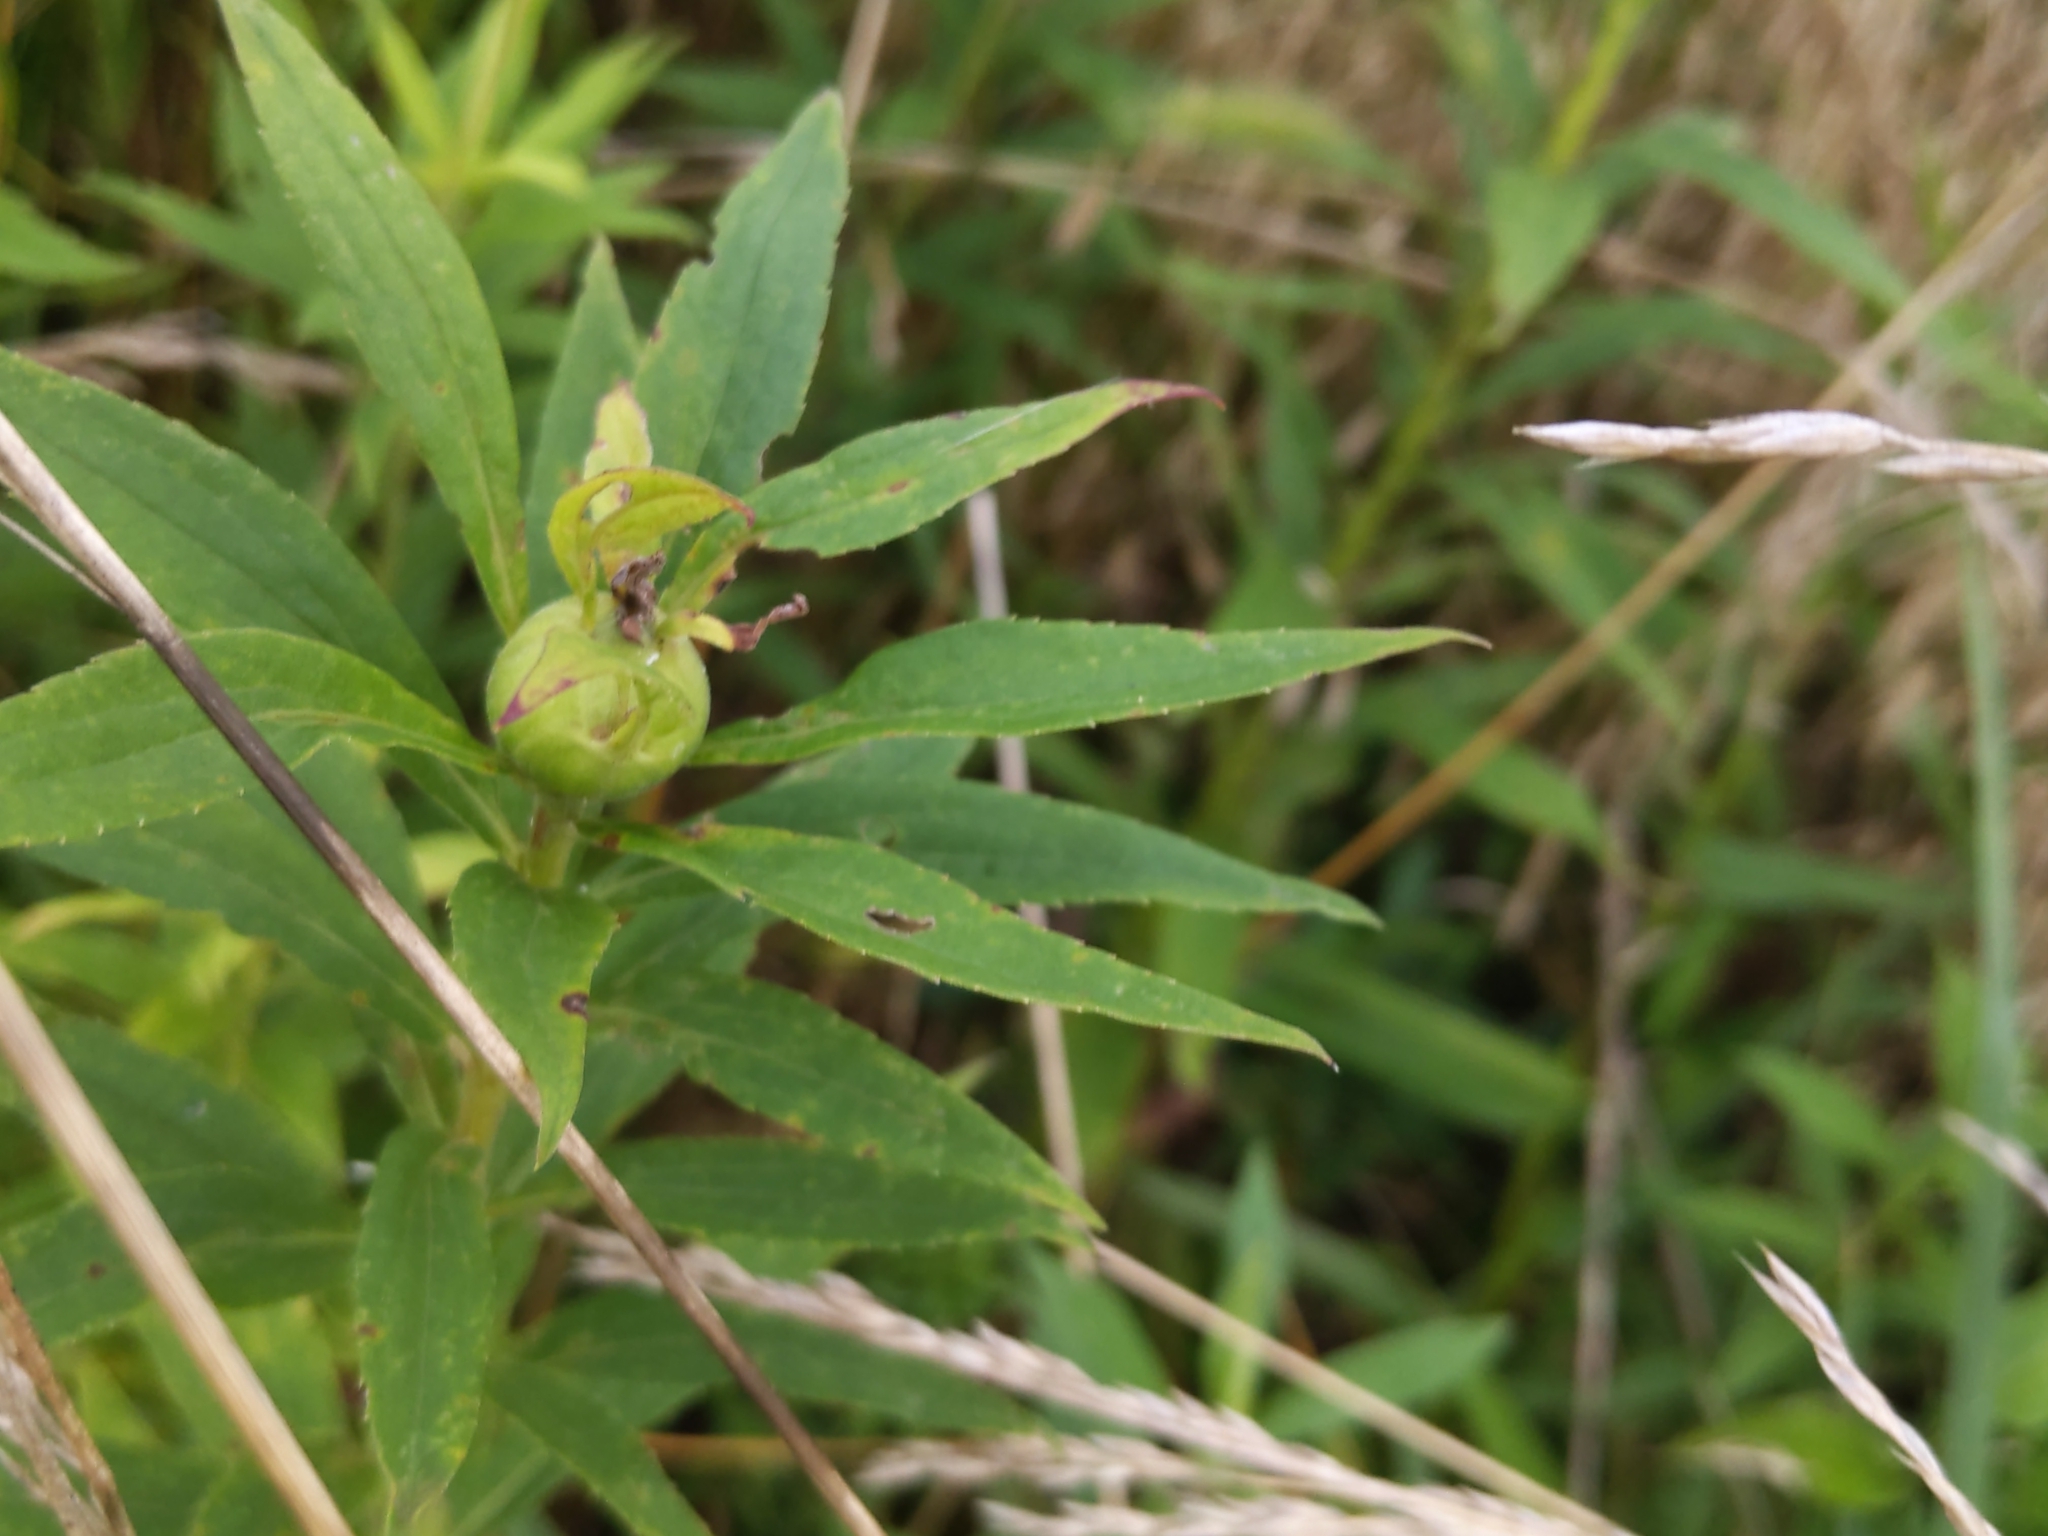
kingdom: Animalia
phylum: Arthropoda
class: Insecta
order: Diptera
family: Tephritidae
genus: Eurosta
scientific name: Eurosta solidaginis
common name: Goldenrod gall fly
